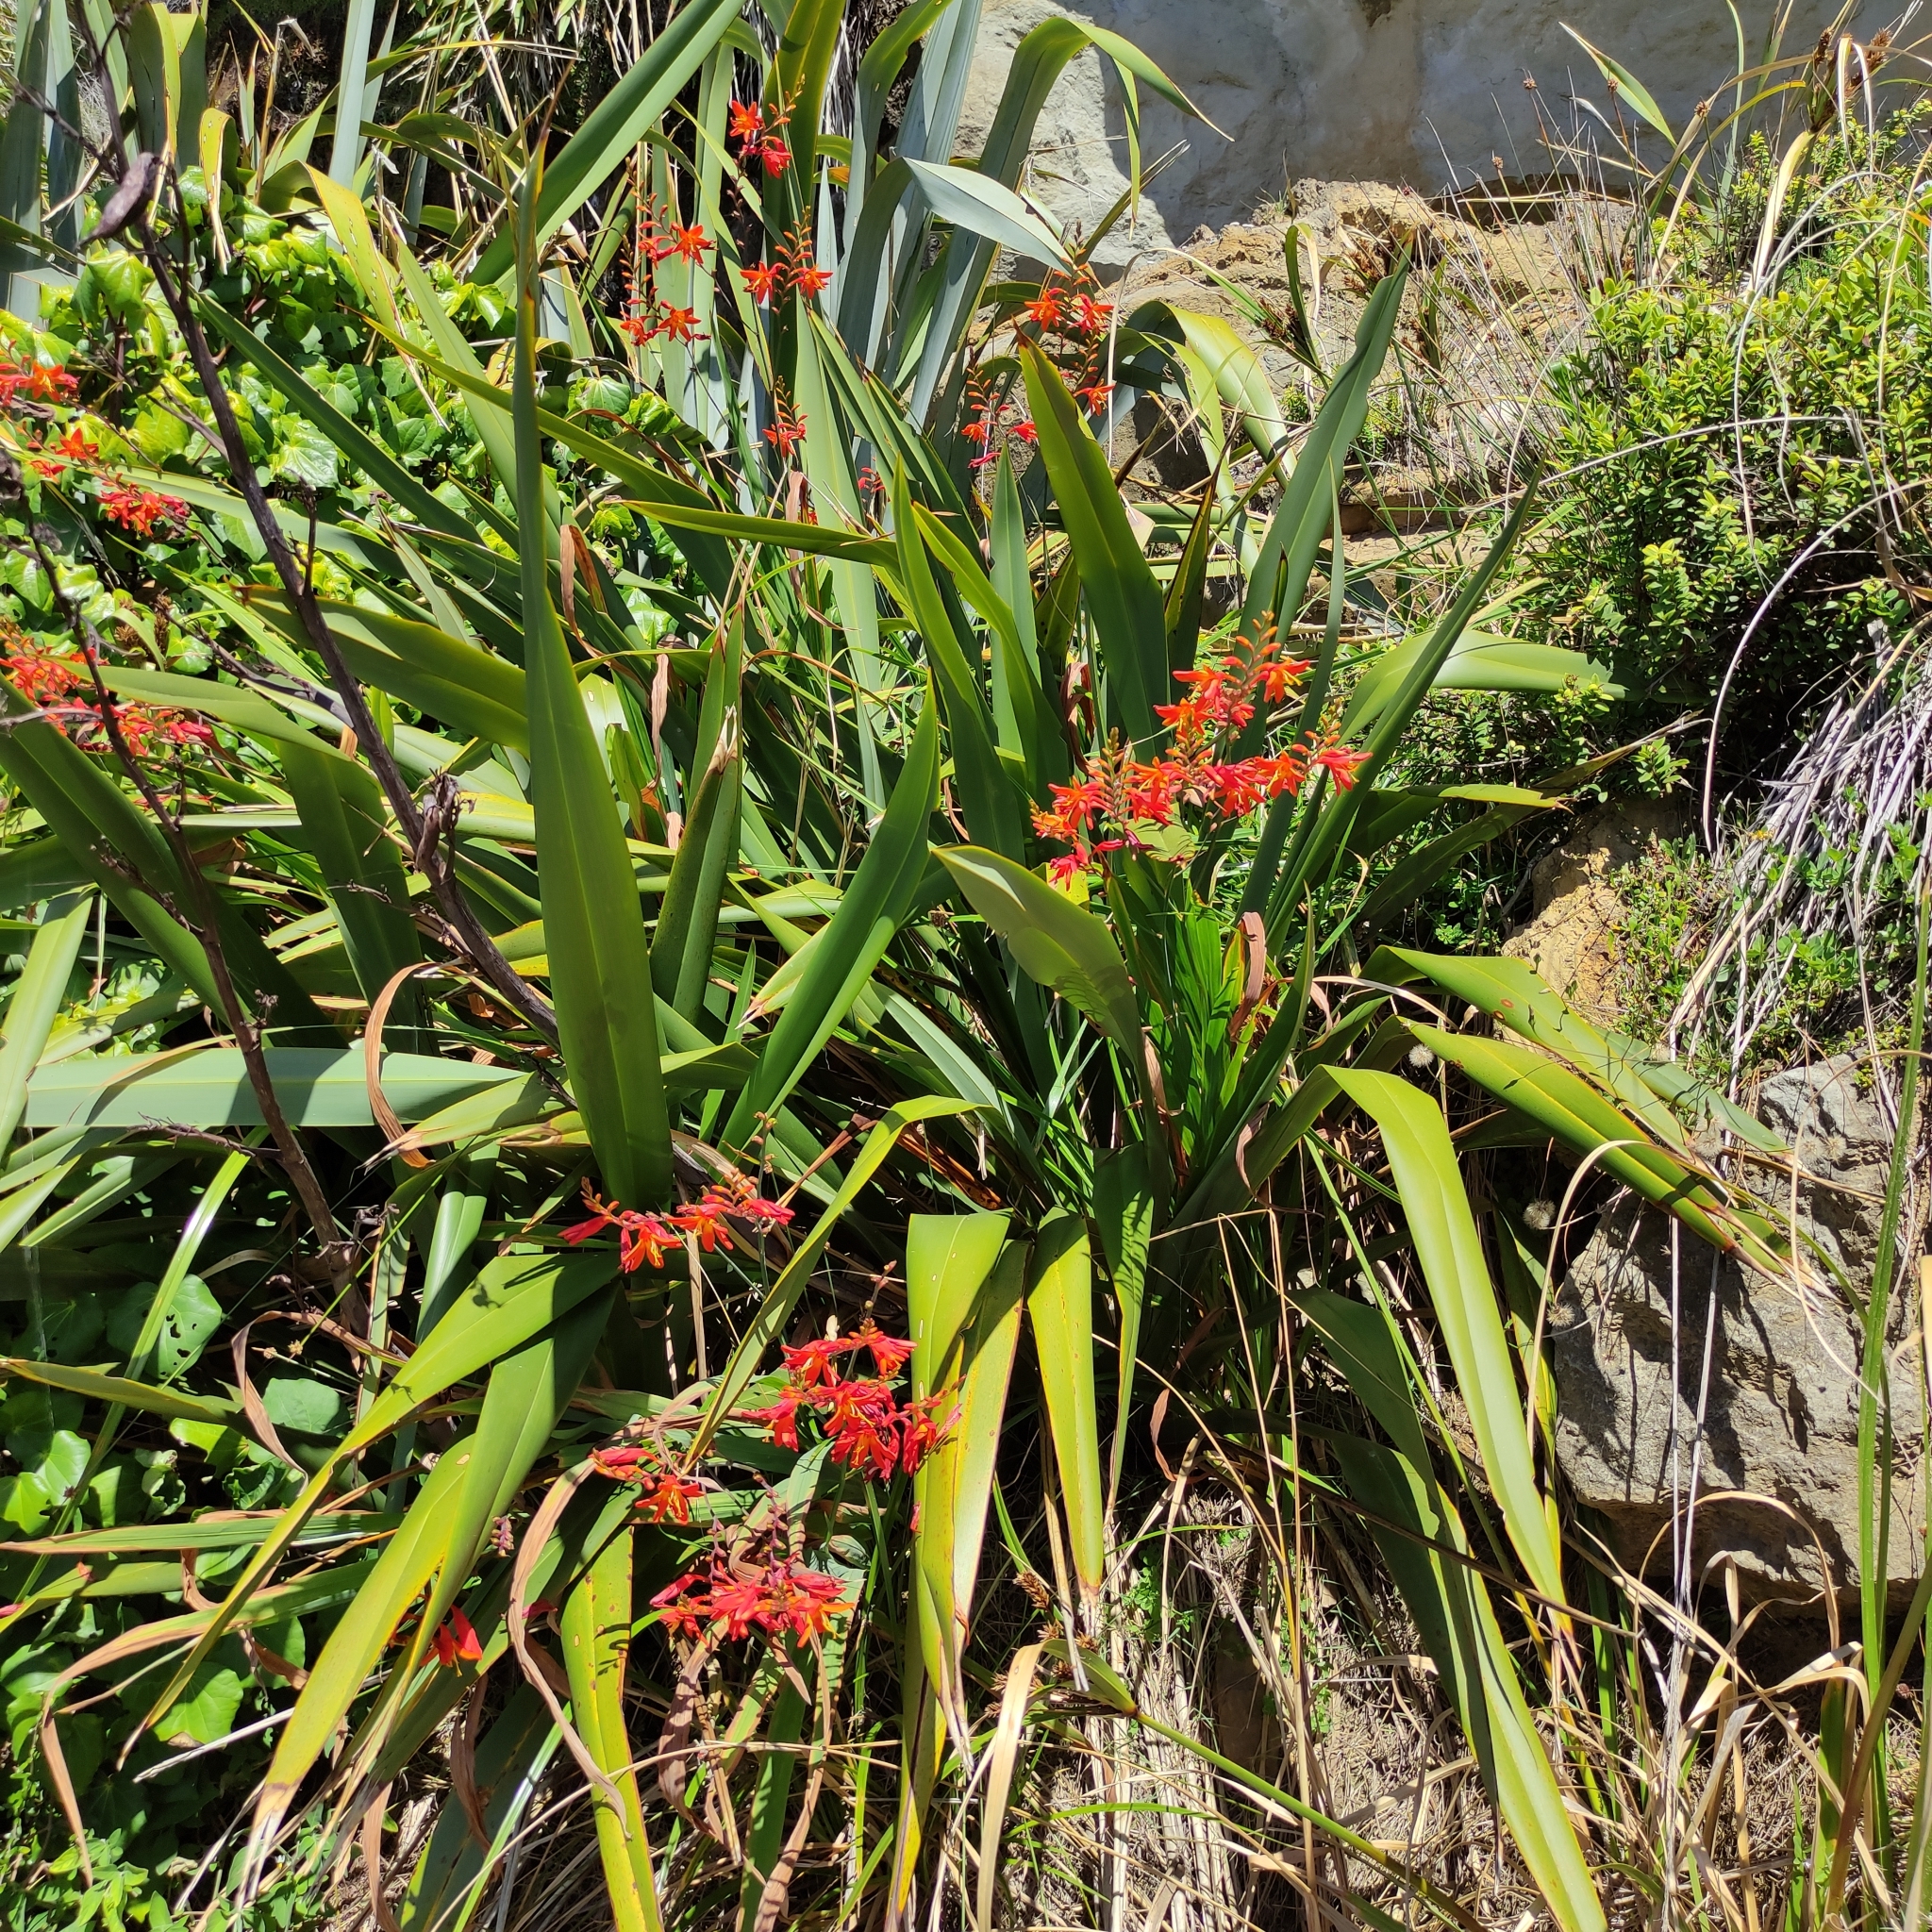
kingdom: Plantae
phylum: Tracheophyta
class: Liliopsida
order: Asparagales
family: Iridaceae
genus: Crocosmia
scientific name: Crocosmia crocosmiiflora
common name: Montbretia
